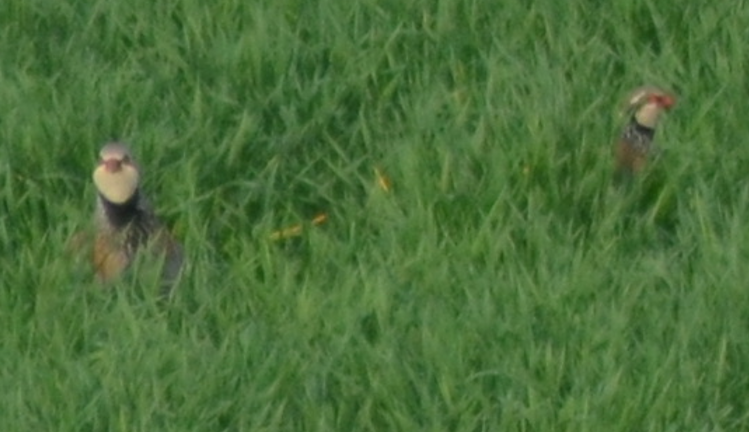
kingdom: Animalia
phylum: Chordata
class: Aves
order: Galliformes
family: Phasianidae
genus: Alectoris
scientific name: Alectoris rufa
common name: Red-legged partridge
